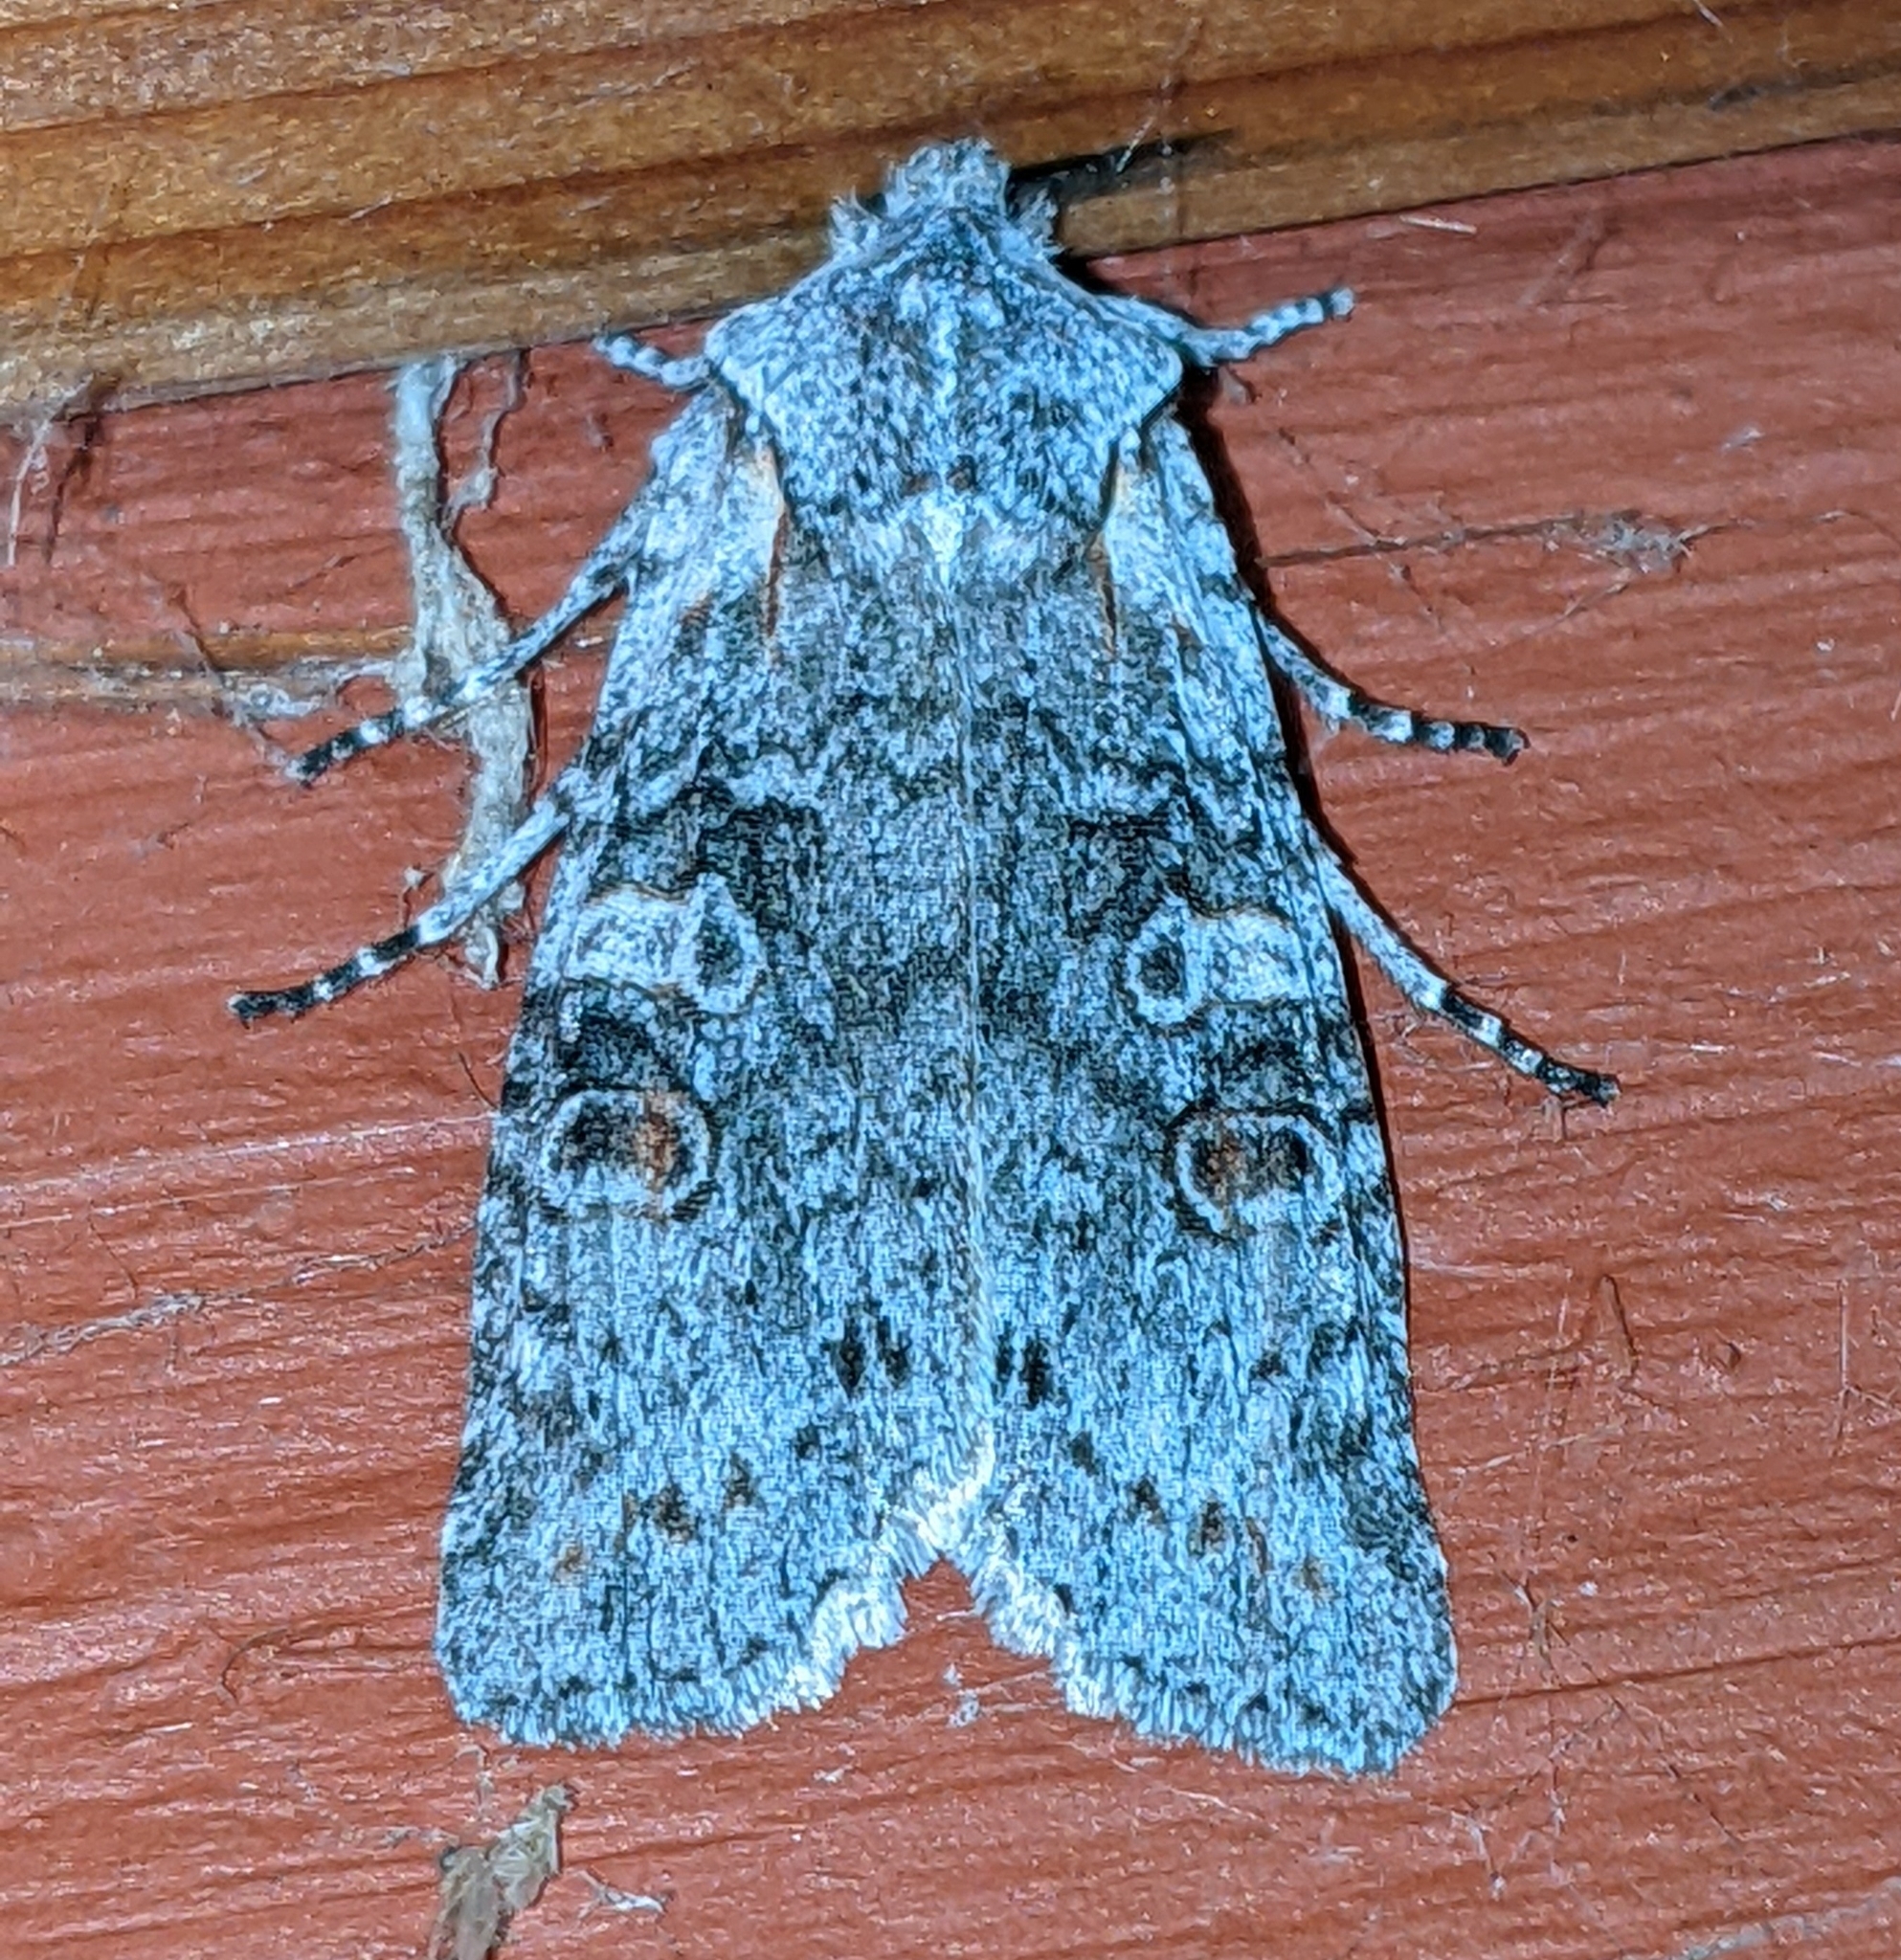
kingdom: Animalia
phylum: Arthropoda
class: Insecta
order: Lepidoptera
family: Noctuidae
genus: Lithophane
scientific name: Lithophane pertorrida
